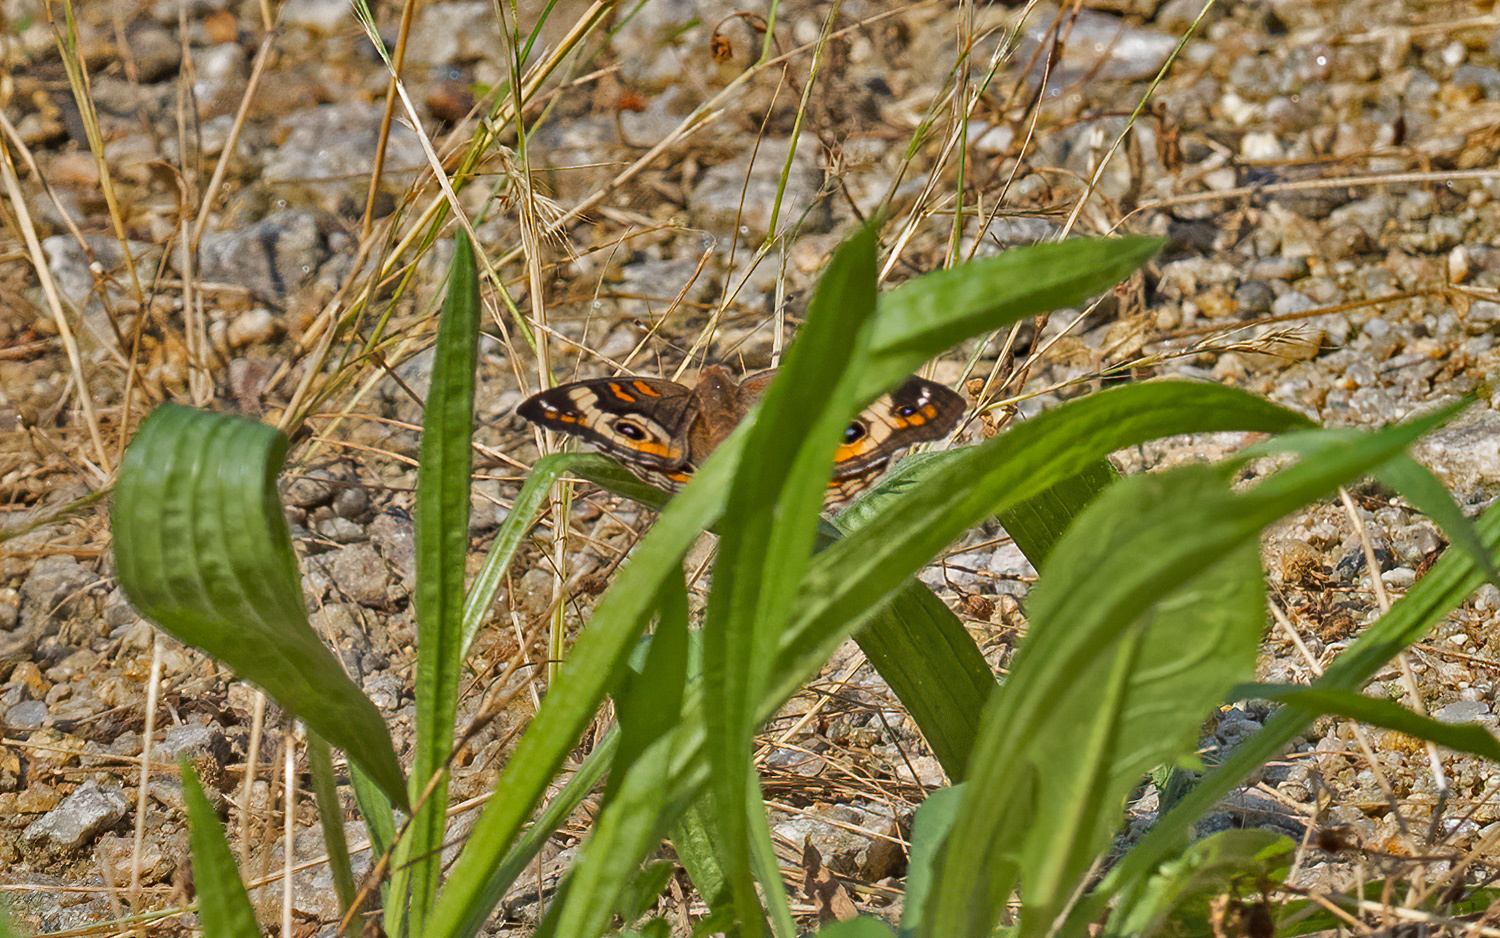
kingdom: Animalia
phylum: Arthropoda
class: Insecta
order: Lepidoptera
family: Nymphalidae
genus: Junonia
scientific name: Junonia coenia
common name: Common buckeye
